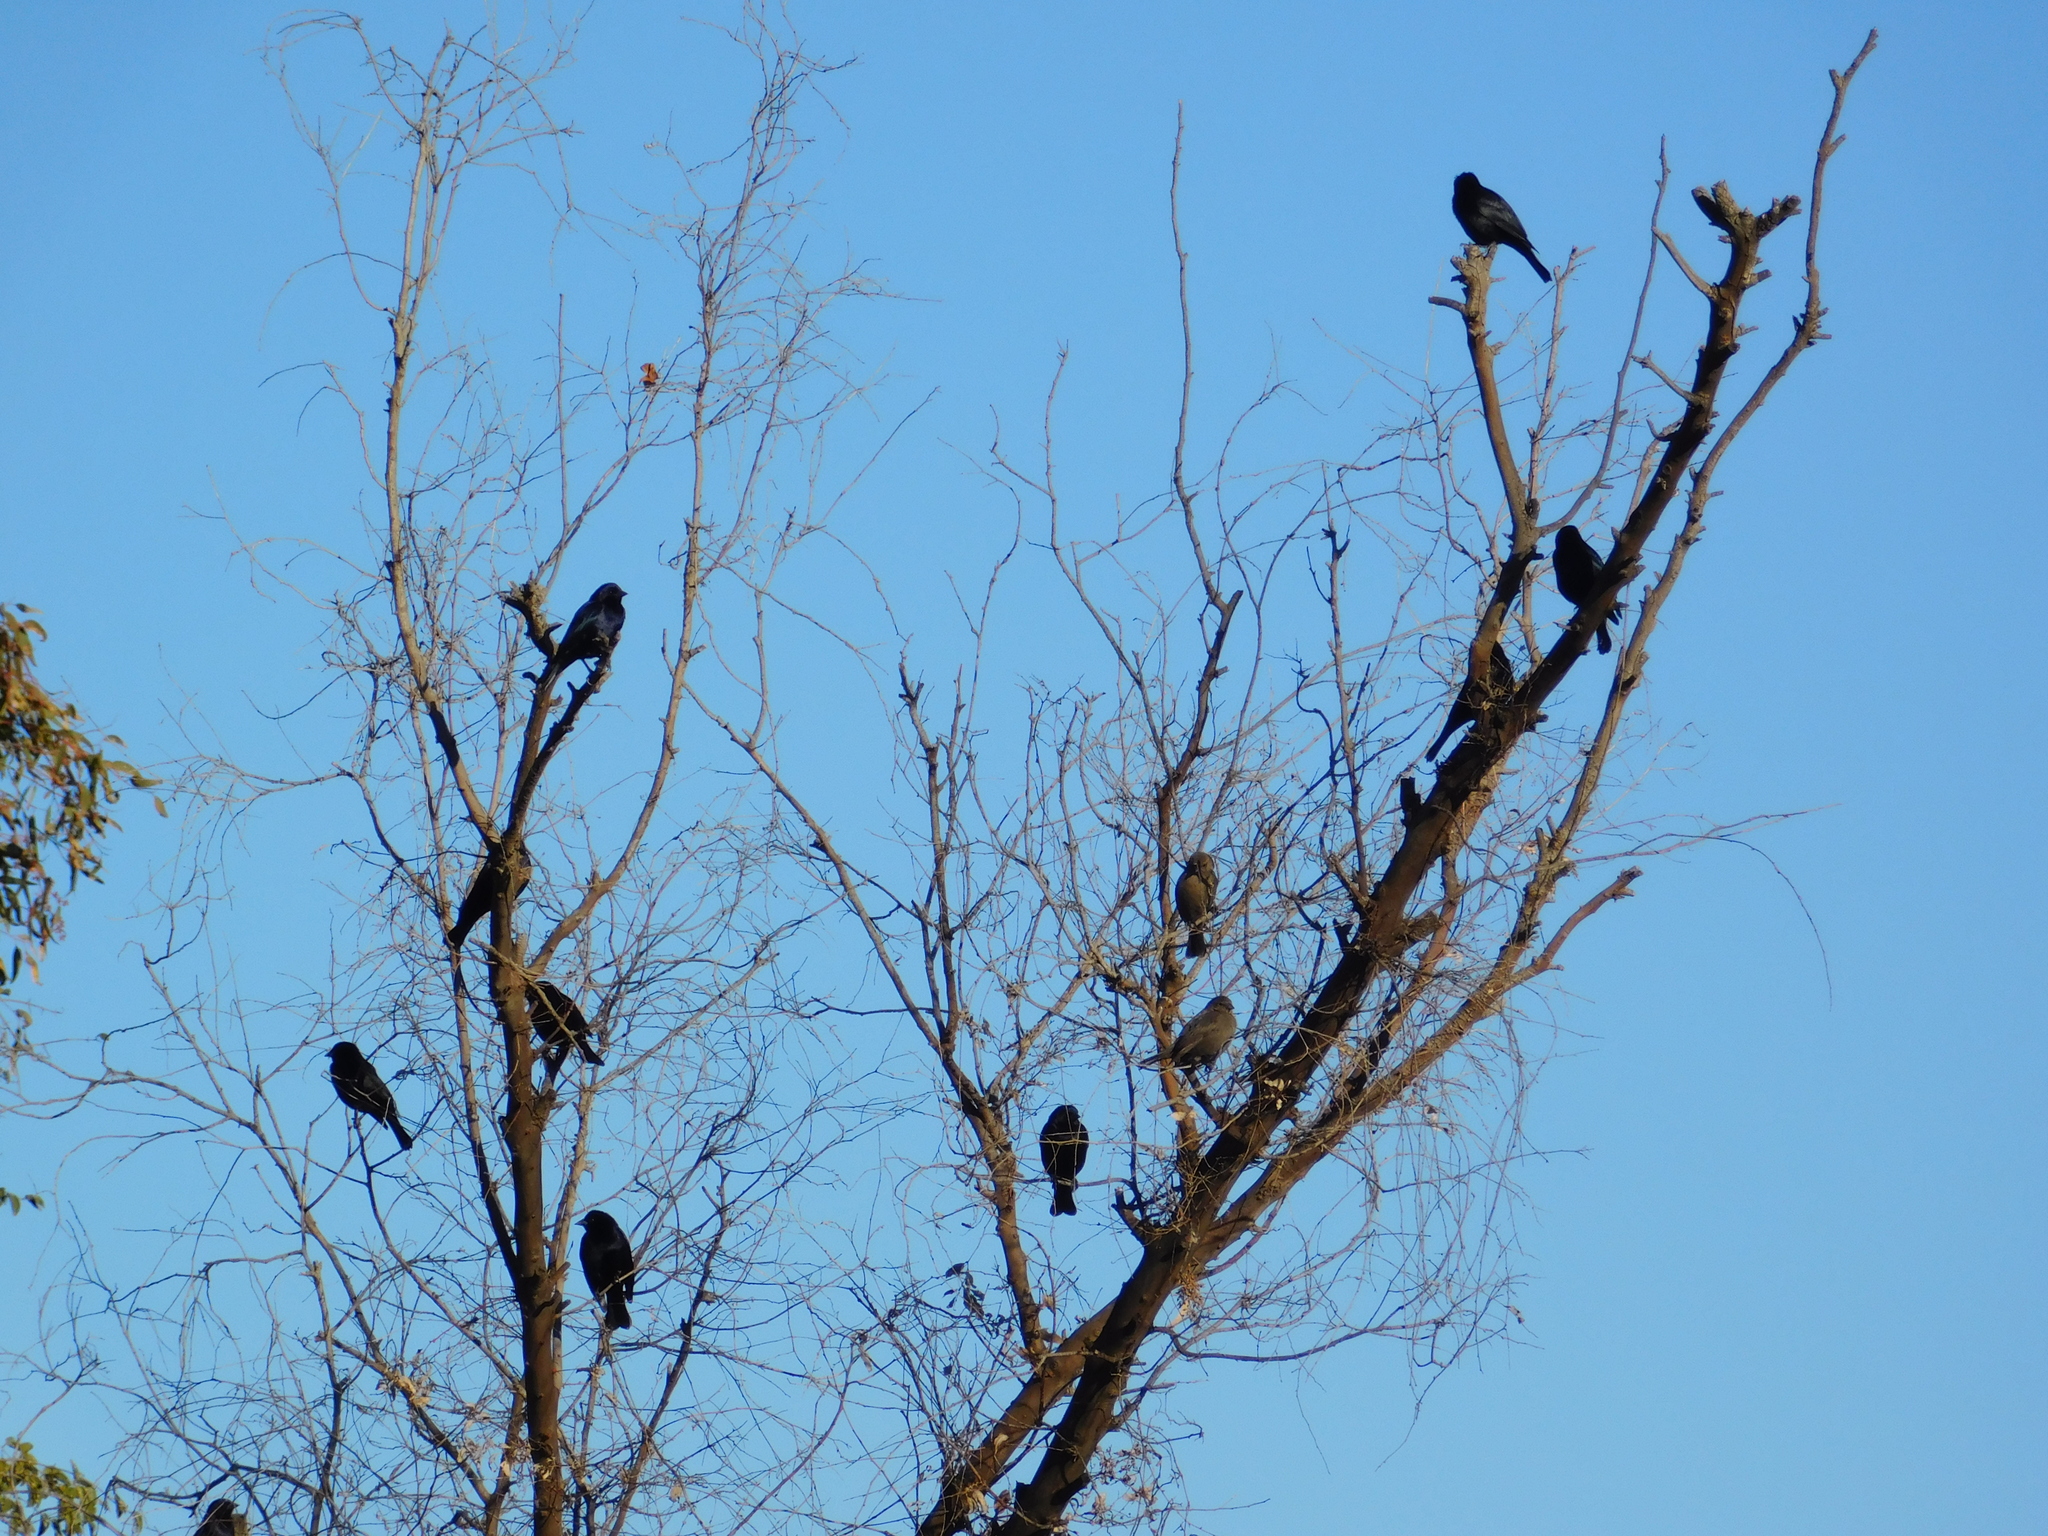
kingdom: Animalia
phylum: Chordata
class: Aves
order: Passeriformes
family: Icteridae
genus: Molothrus
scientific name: Molothrus bonariensis
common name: Shiny cowbird
